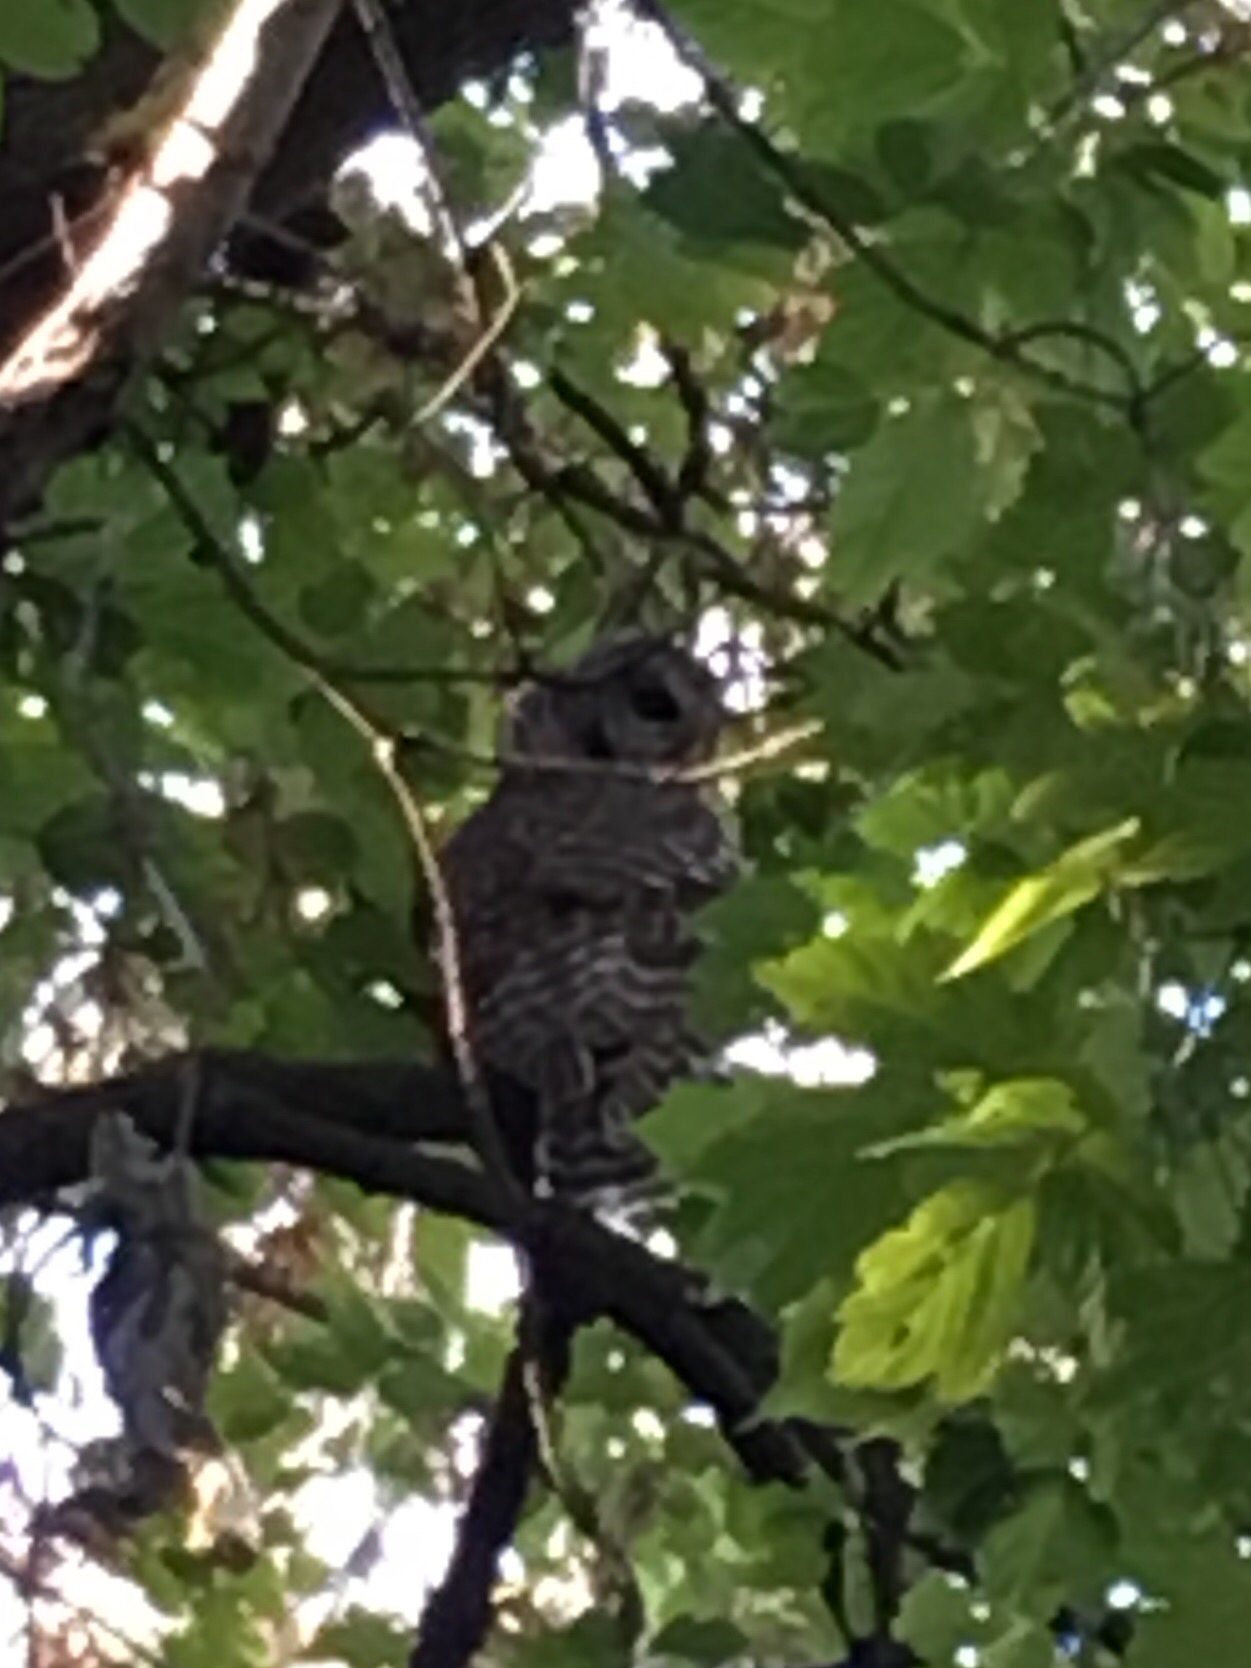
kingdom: Animalia
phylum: Chordata
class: Aves
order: Strigiformes
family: Strigidae
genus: Strix
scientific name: Strix varia
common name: Barred owl
